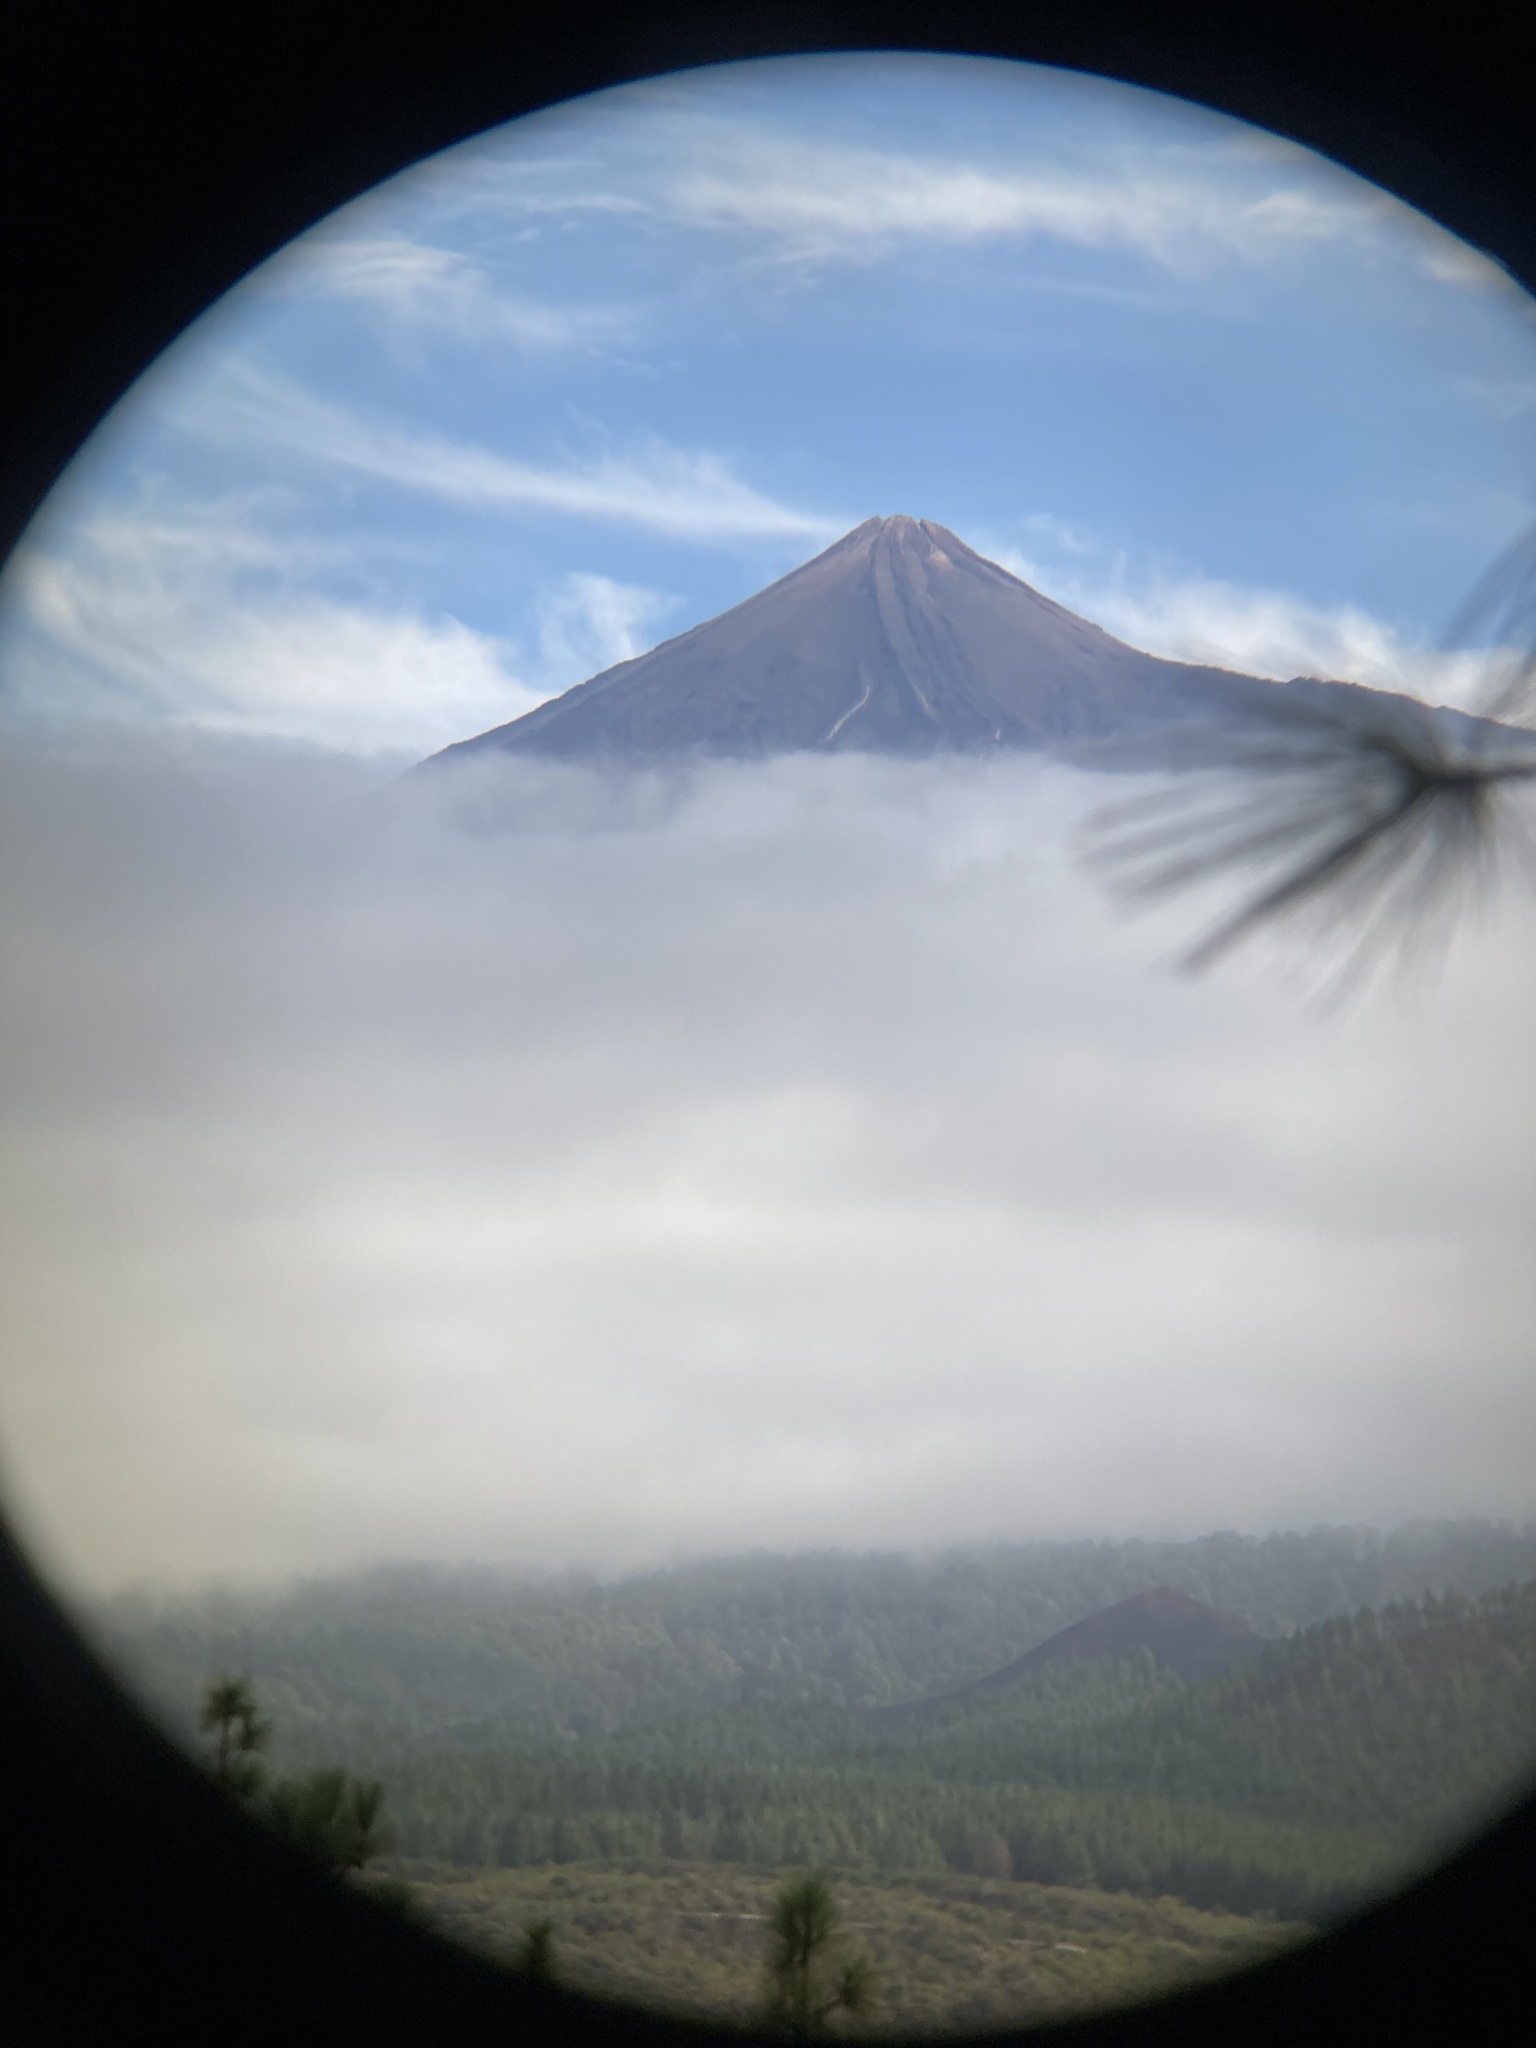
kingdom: Plantae
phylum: Tracheophyta
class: Pinopsida
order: Pinales
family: Pinaceae
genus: Pinus
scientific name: Pinus canariensis
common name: Canary islands pine
